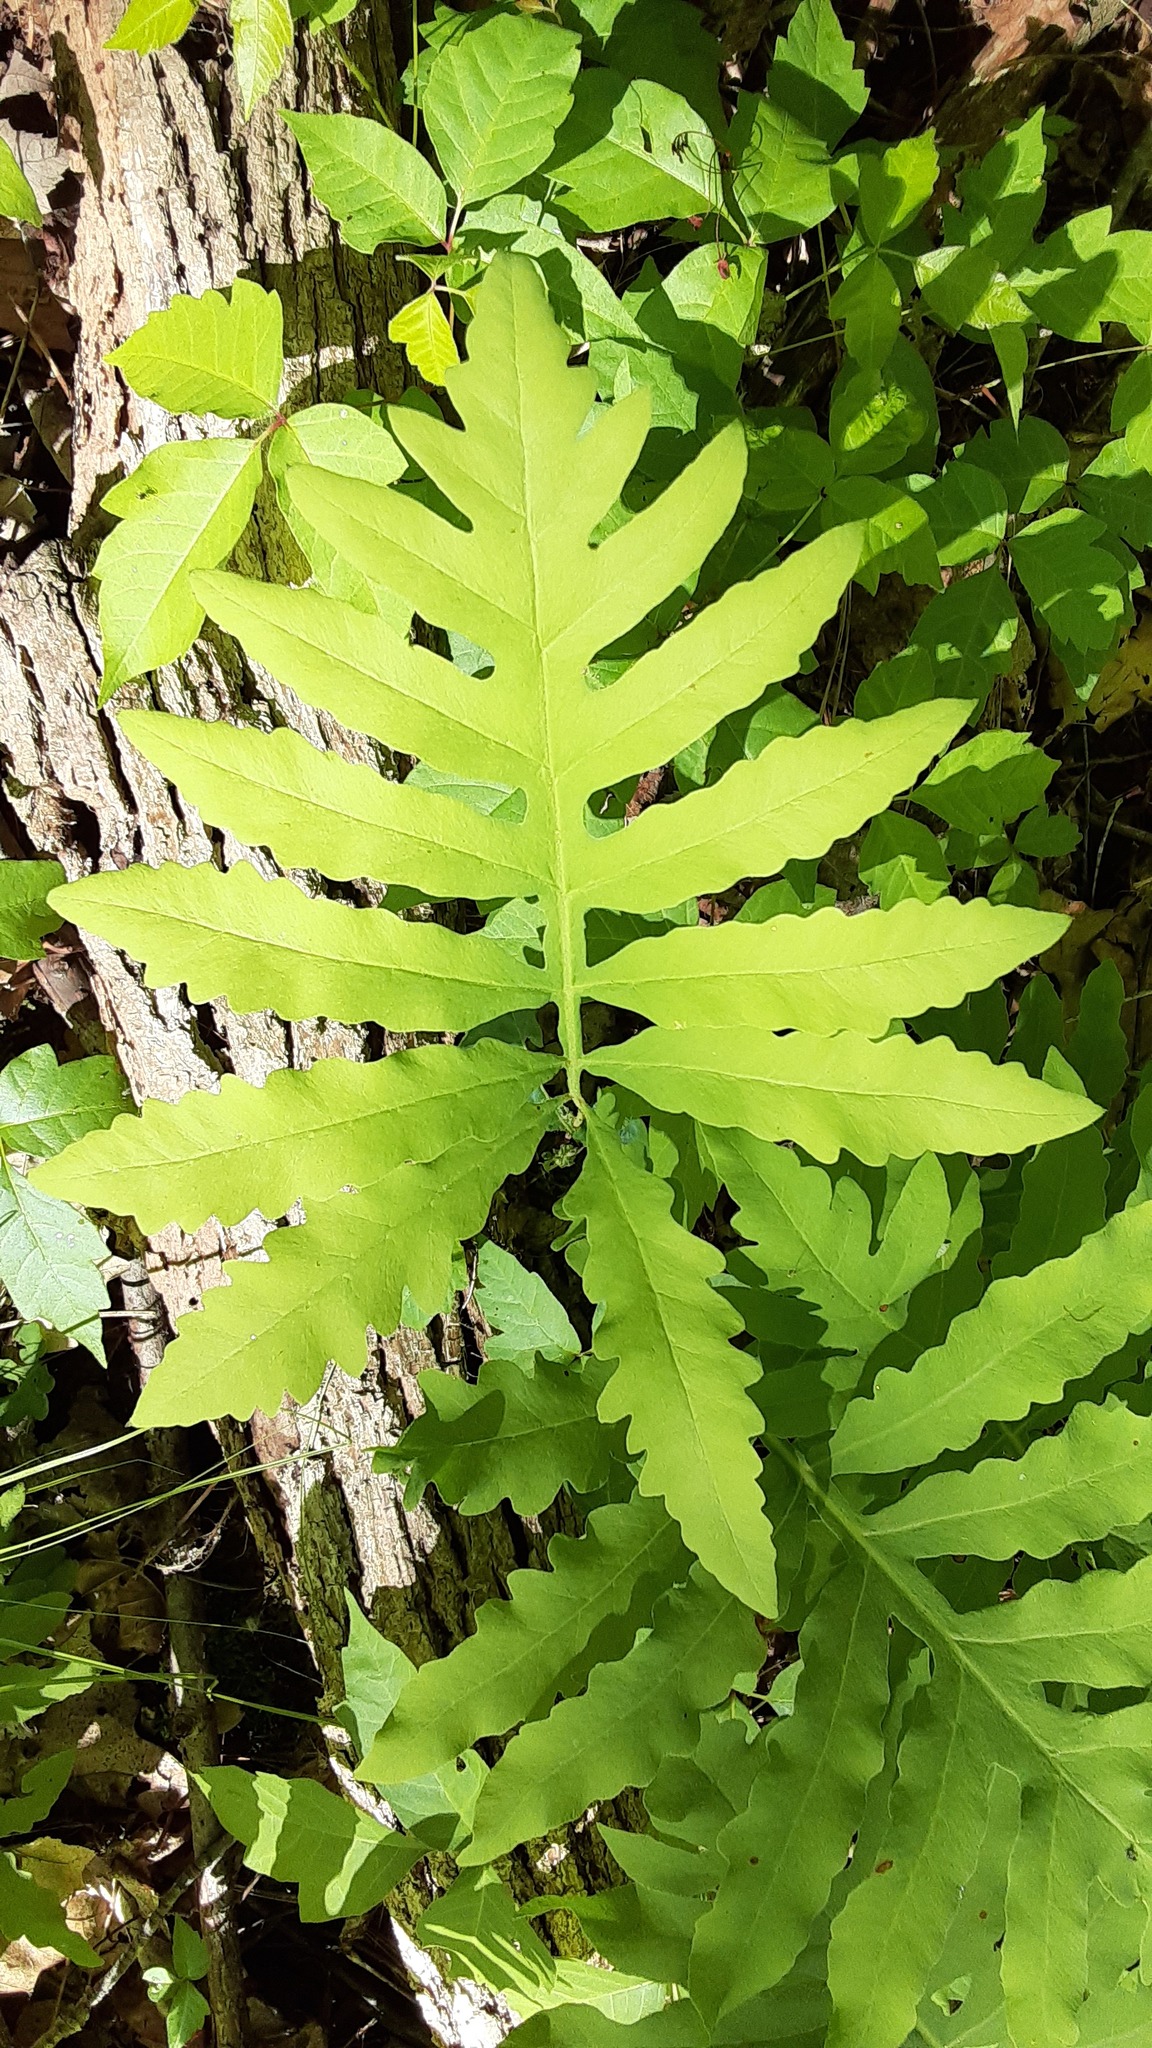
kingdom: Plantae
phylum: Tracheophyta
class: Polypodiopsida
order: Polypodiales
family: Onocleaceae
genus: Onoclea
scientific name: Onoclea sensibilis
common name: Sensitive fern
